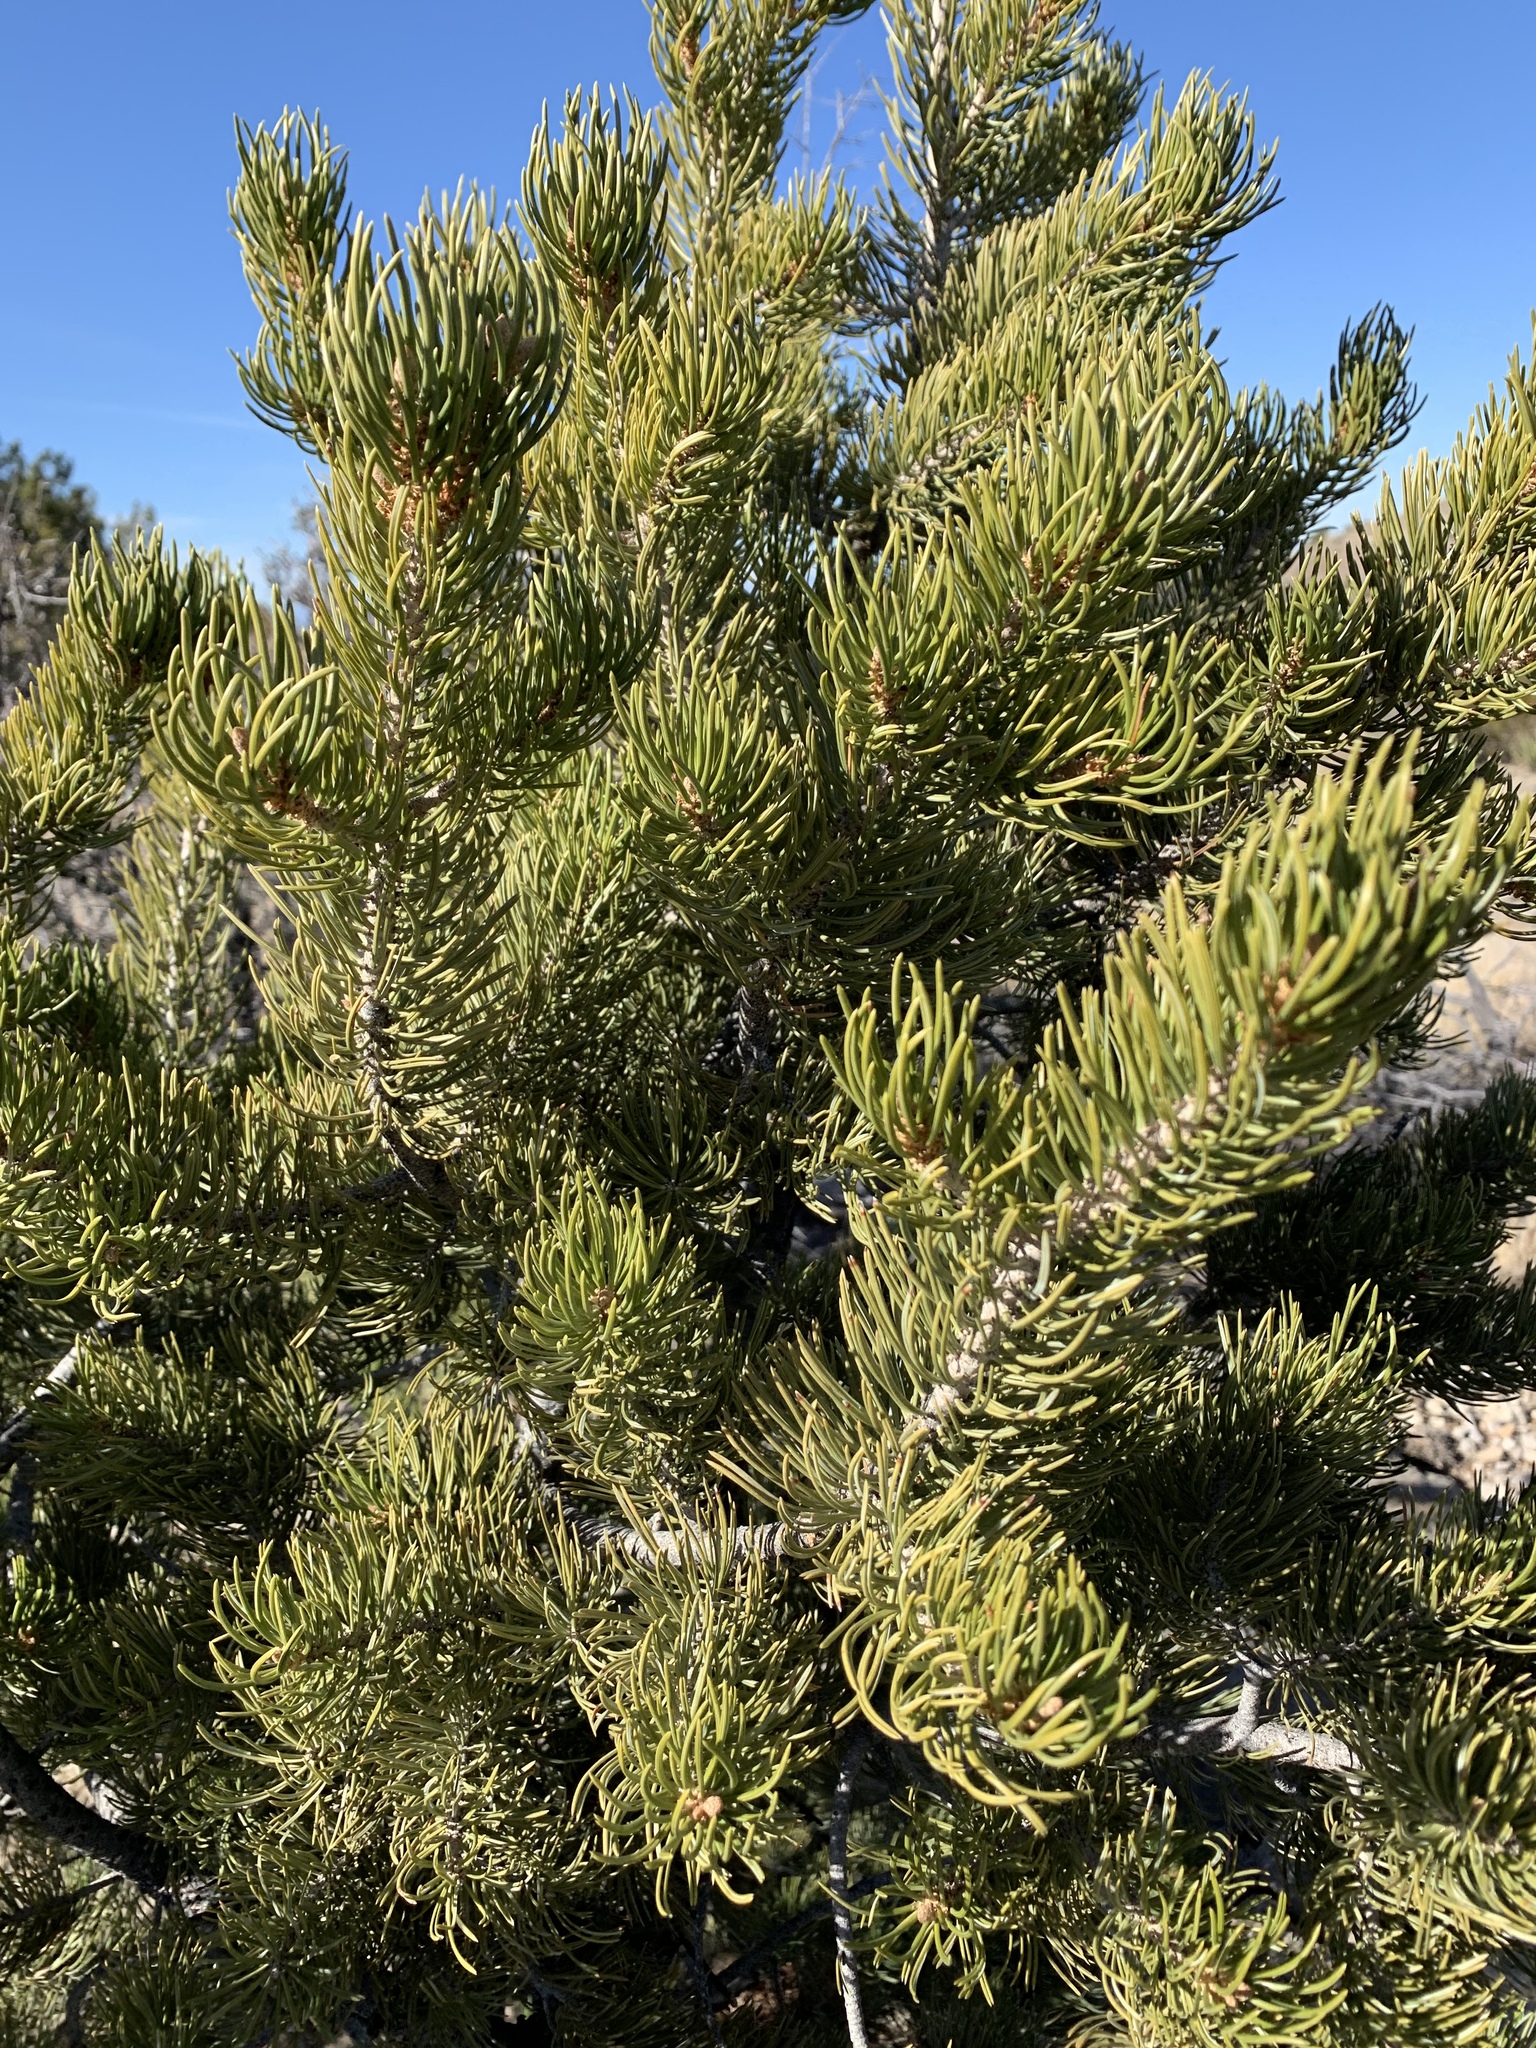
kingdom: Plantae
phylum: Tracheophyta
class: Pinopsida
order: Pinales
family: Pinaceae
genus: Pinus
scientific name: Pinus edulis
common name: Colorado pinyon
